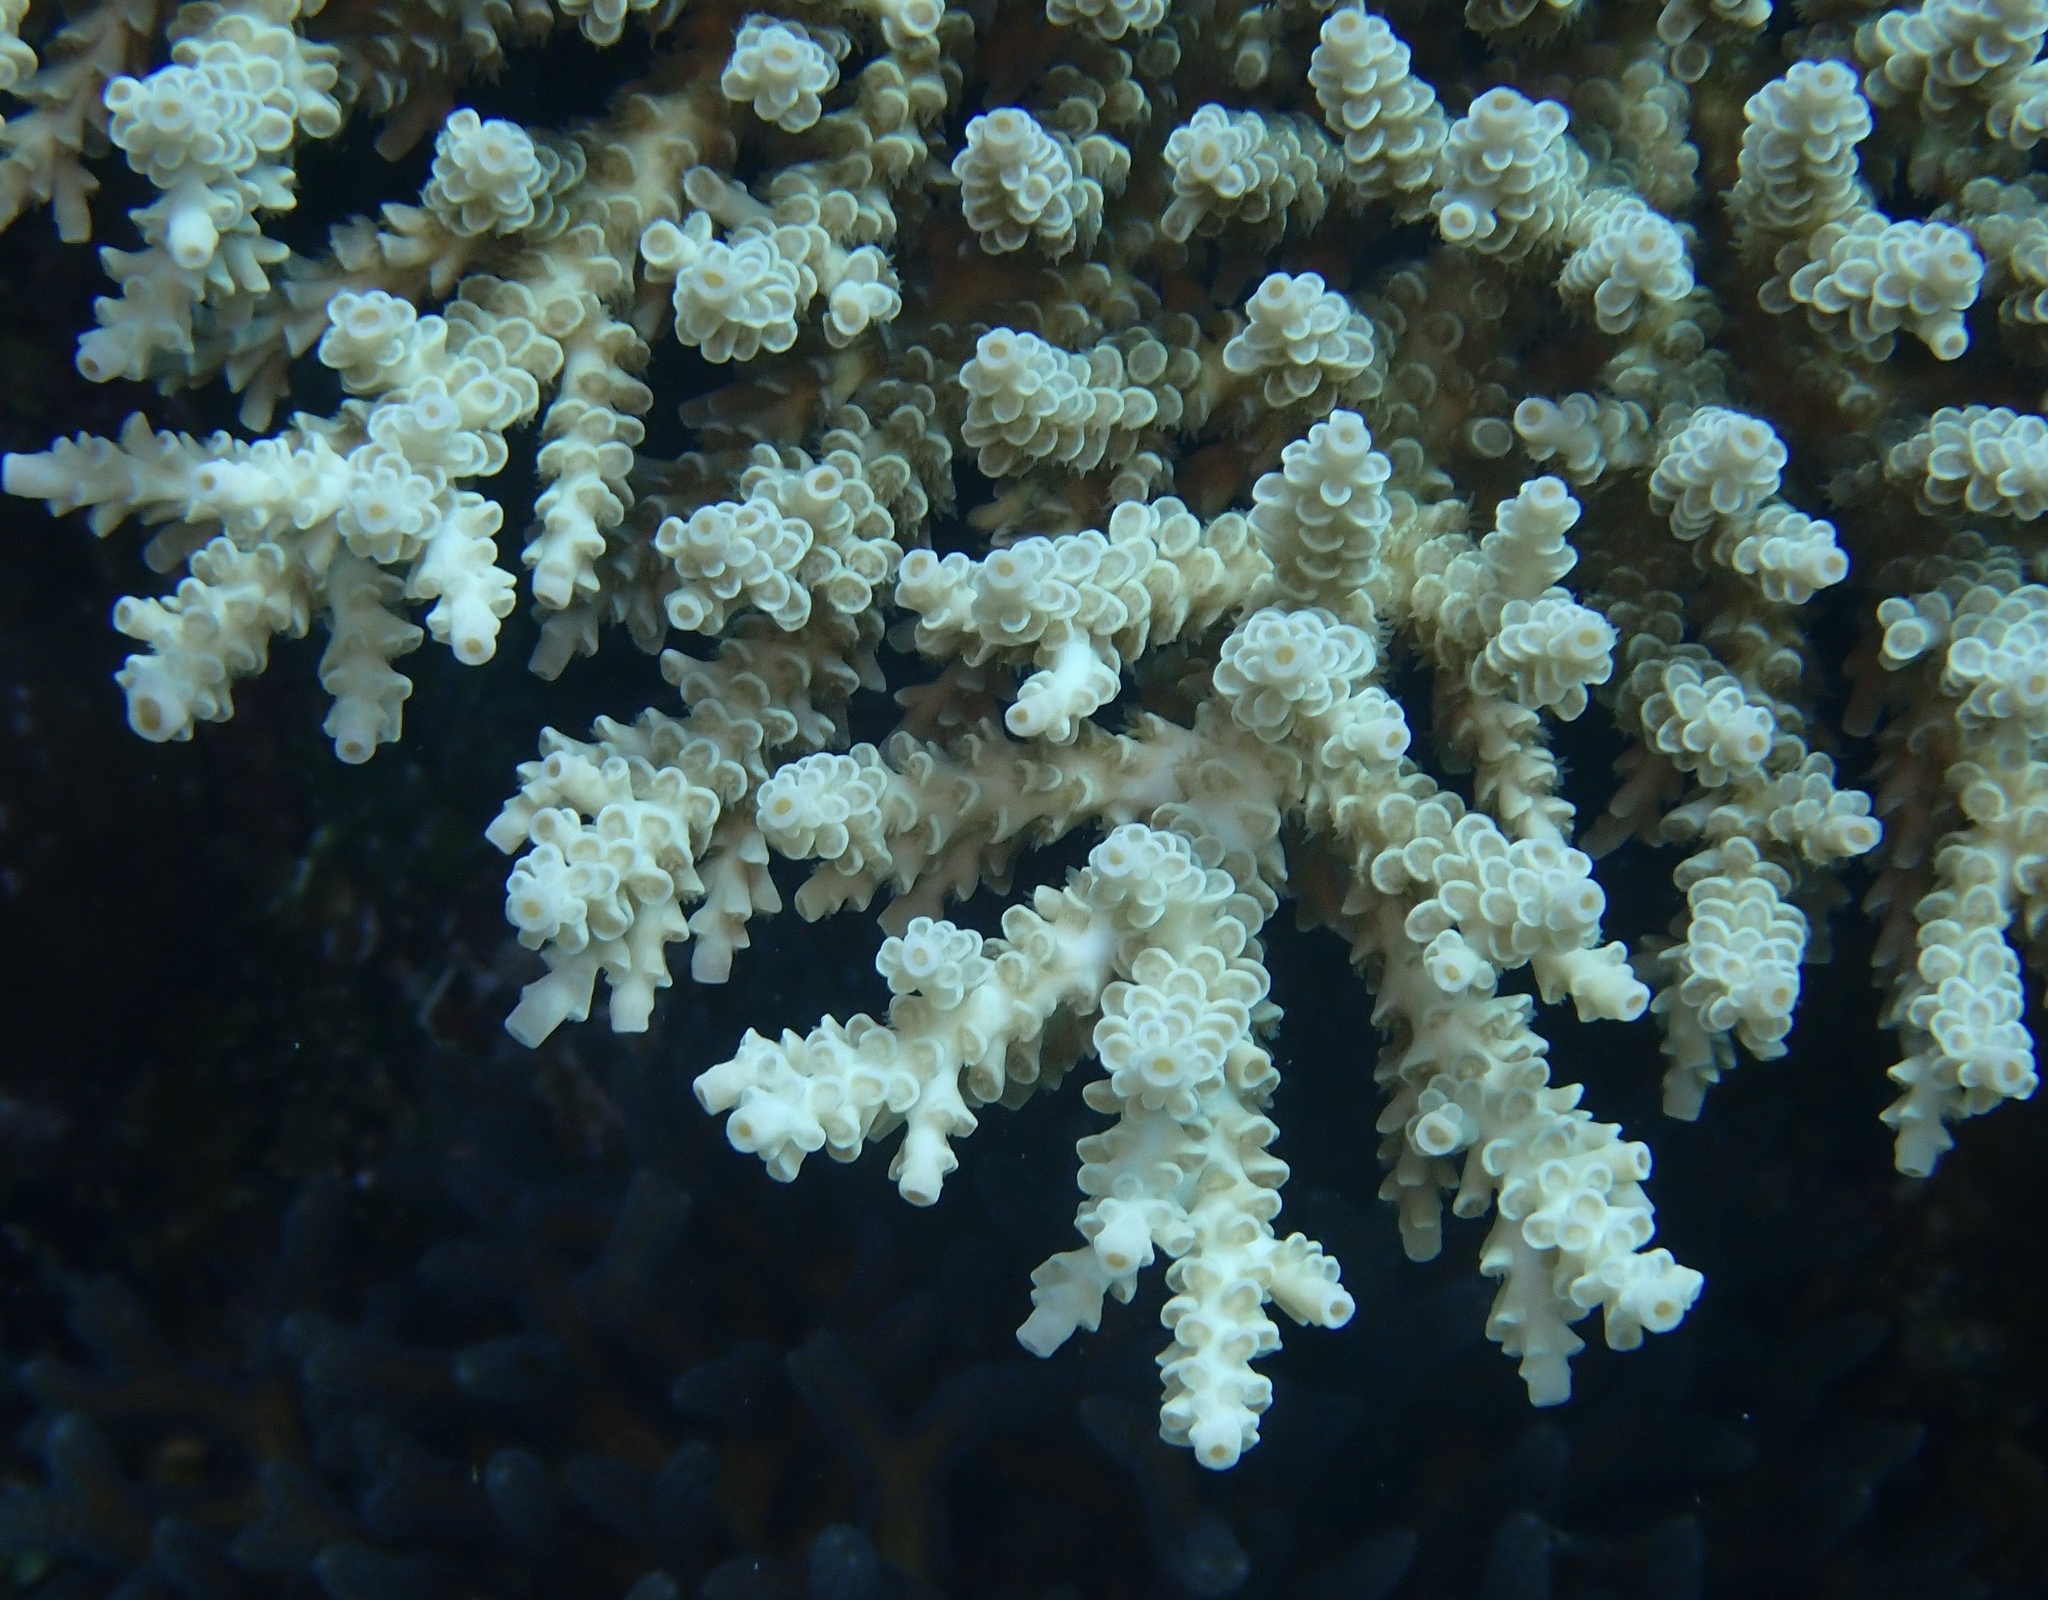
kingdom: Animalia
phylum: Cnidaria
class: Anthozoa
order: Scleractinia
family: Acroporidae
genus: Acropora
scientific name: Acropora tenuis
